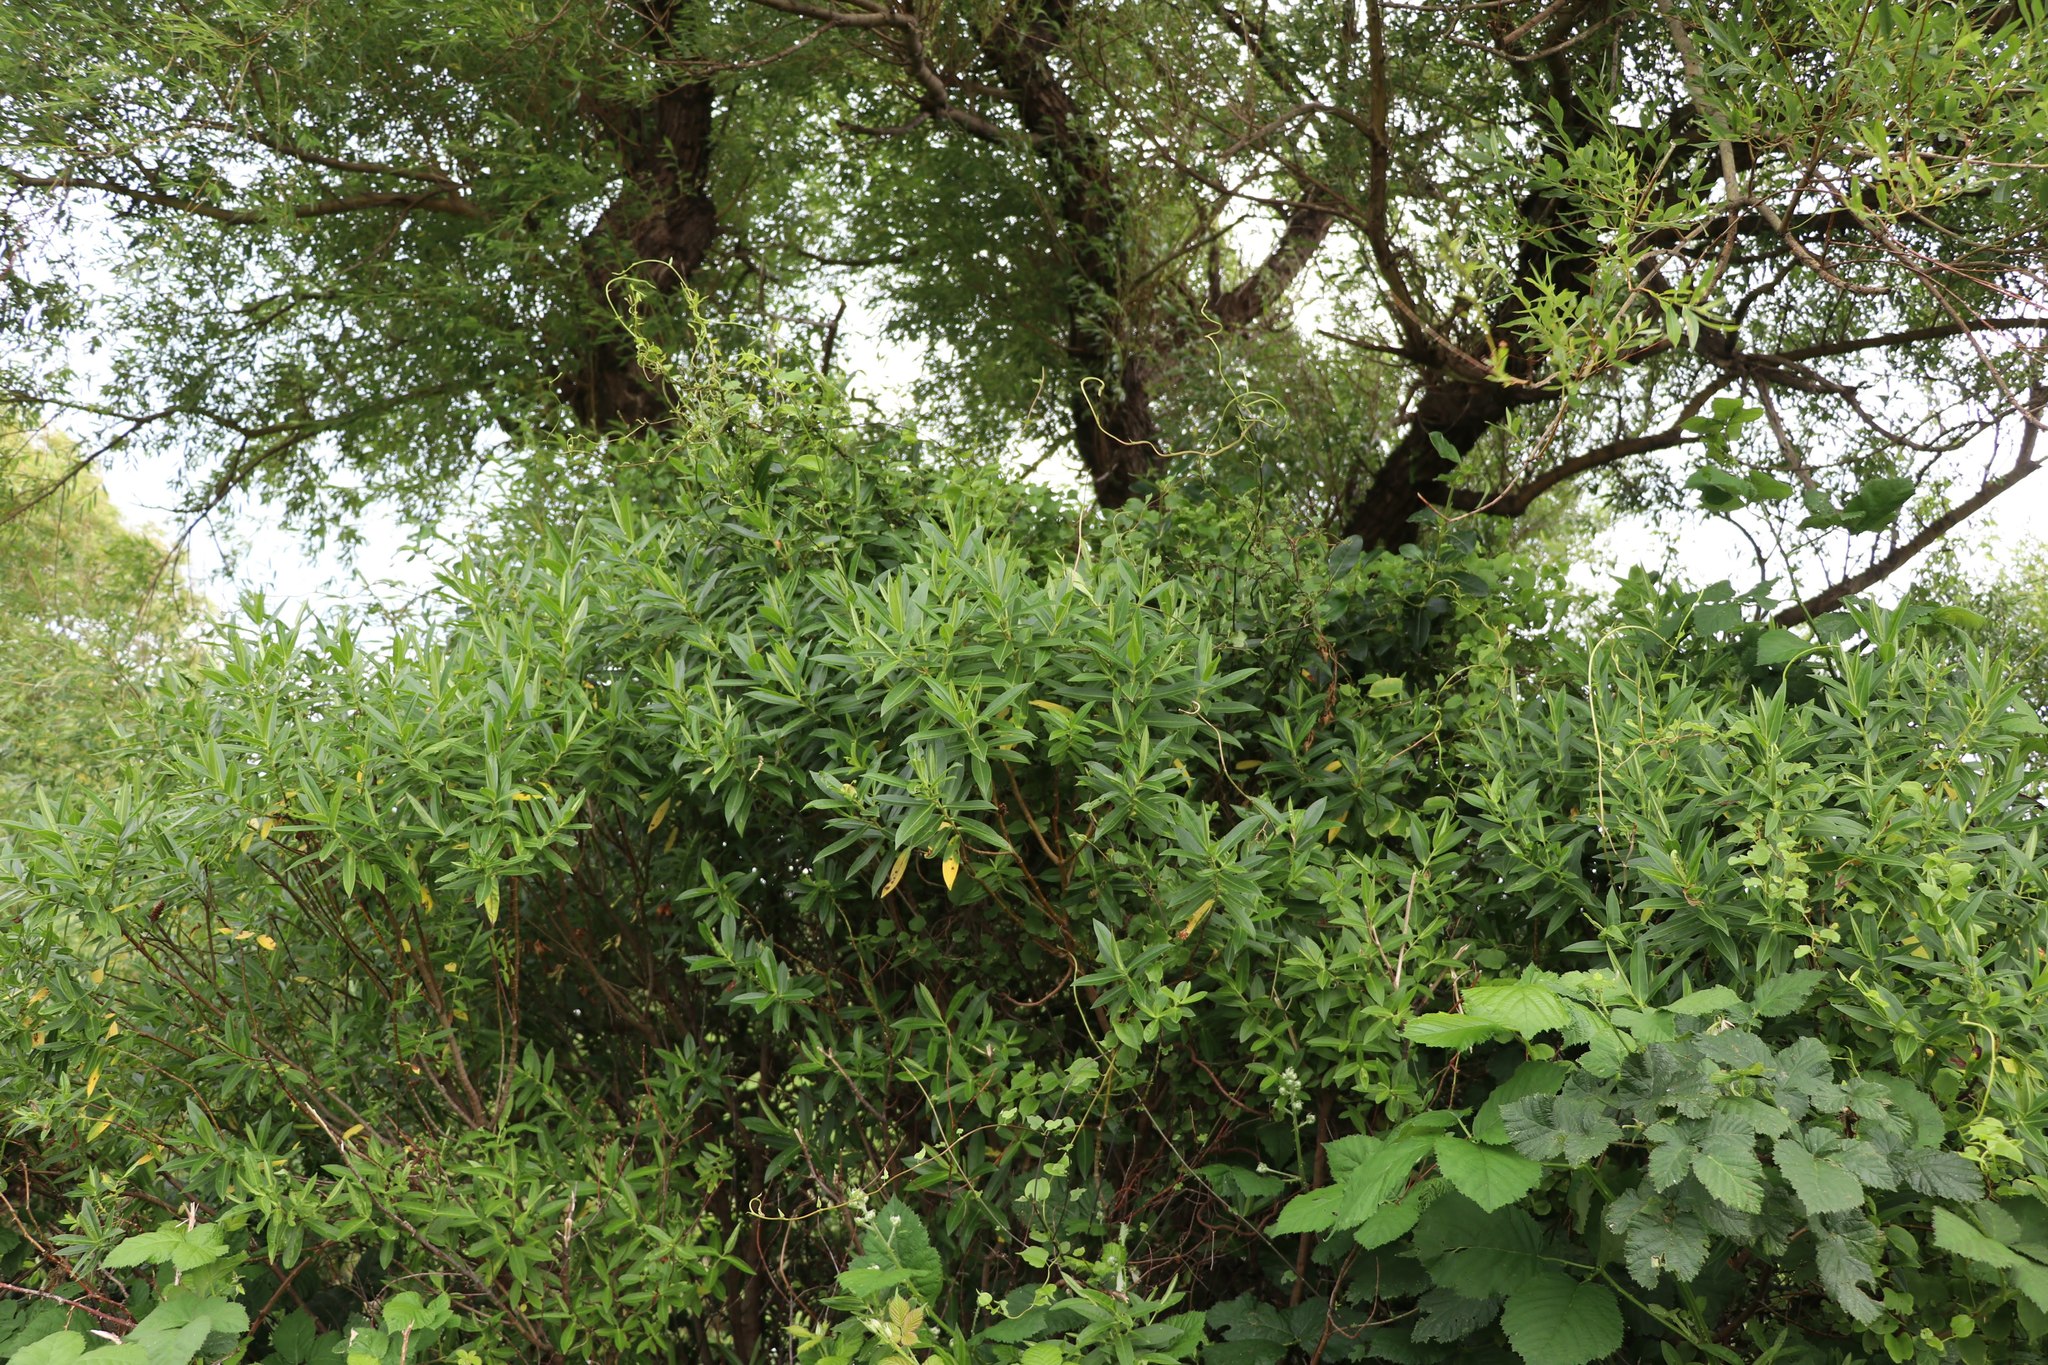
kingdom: Plantae
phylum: Tracheophyta
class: Magnoliopsida
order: Lamiales
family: Plantaginaceae
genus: Veronica
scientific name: Veronica stricta
